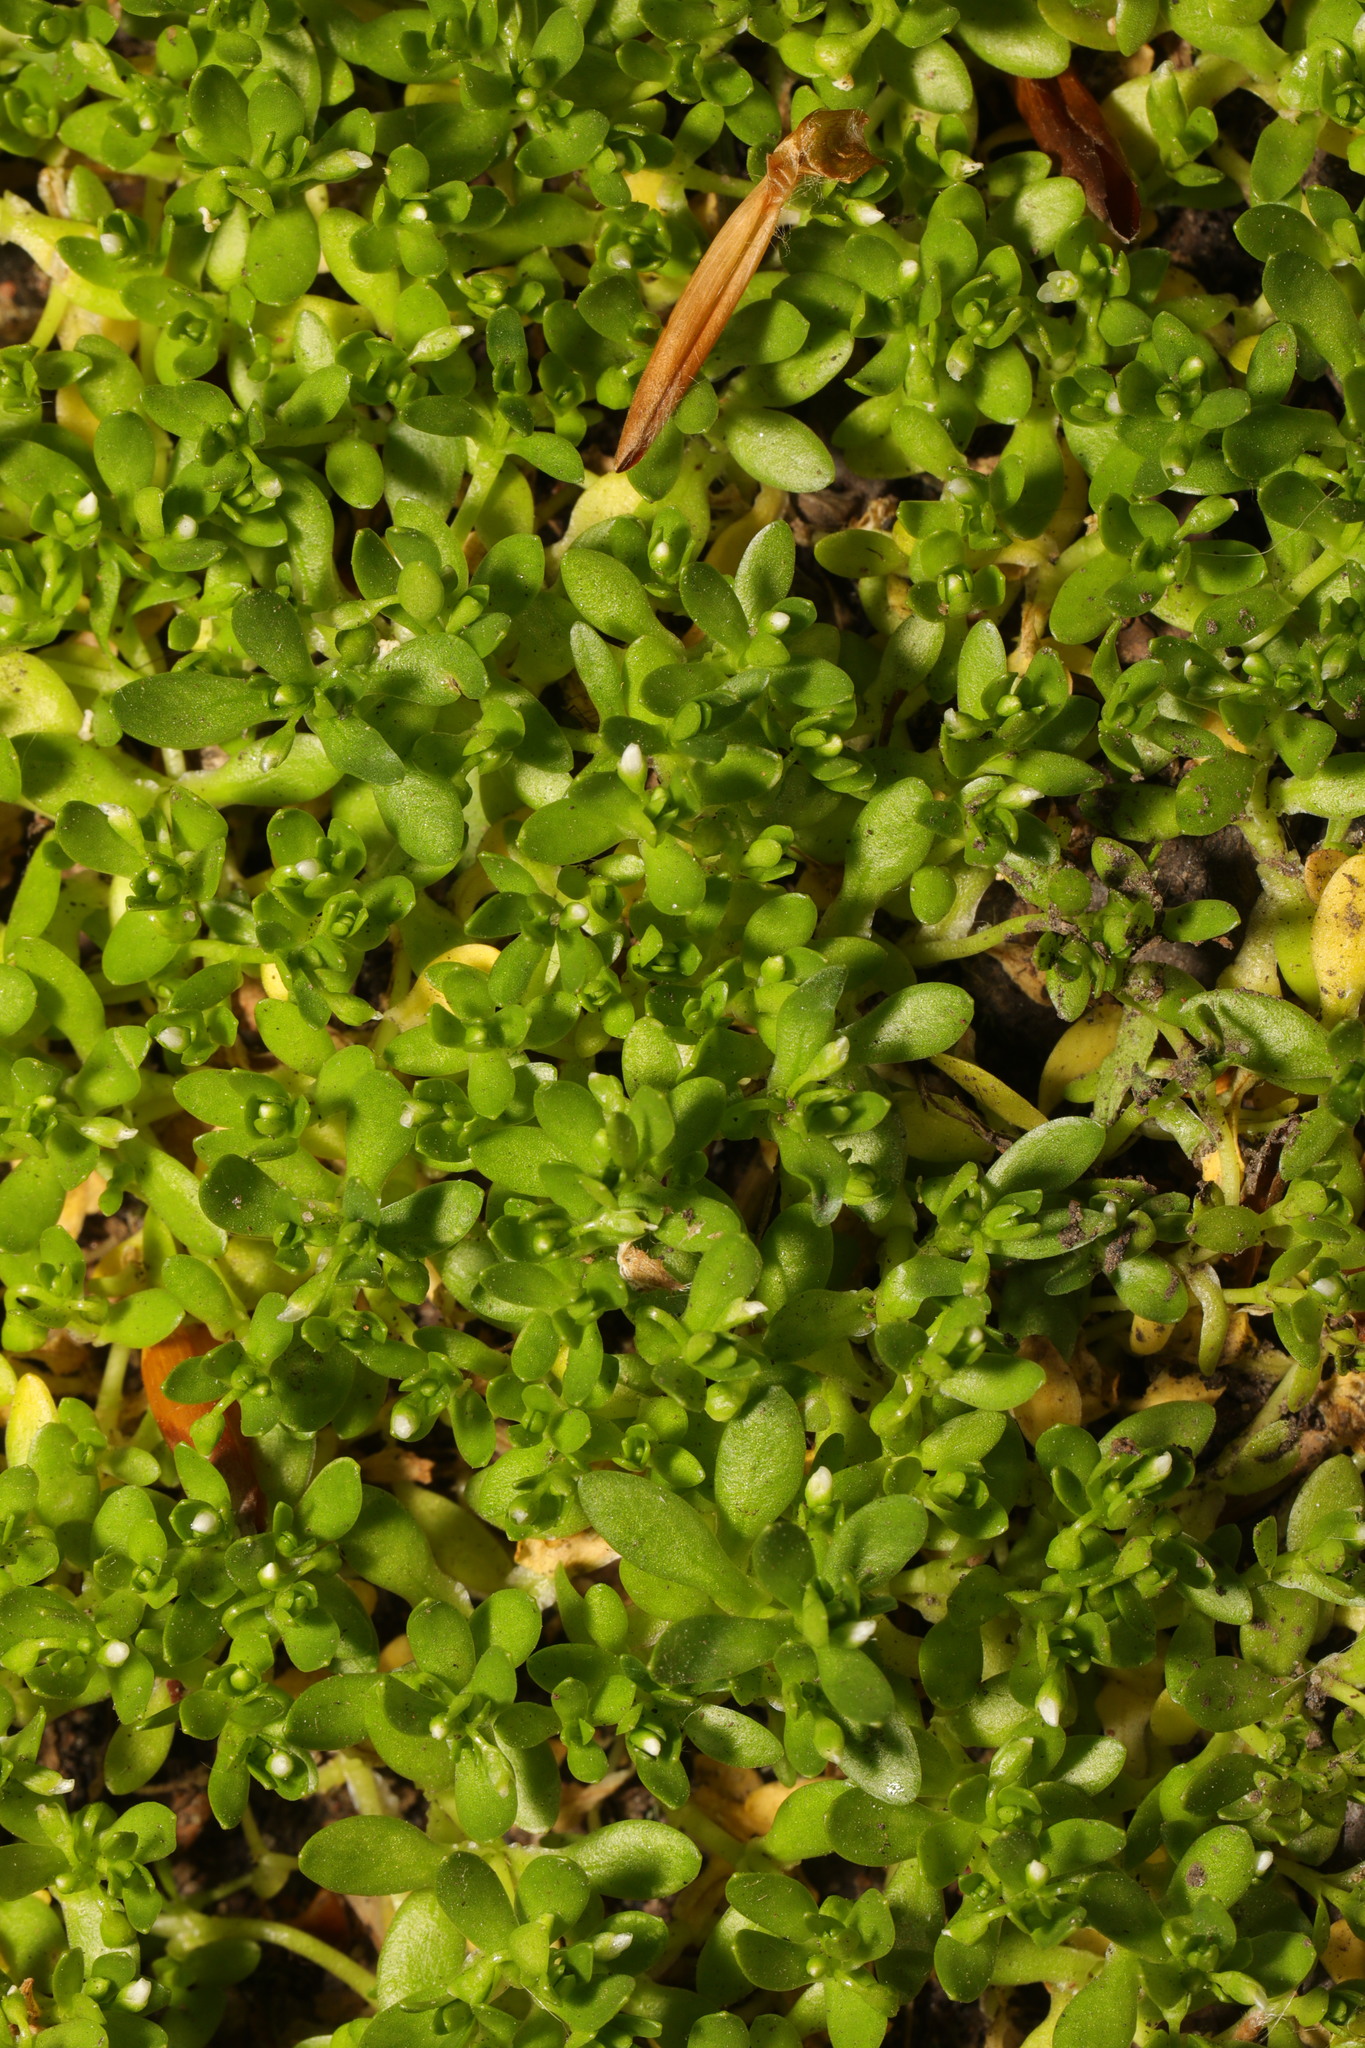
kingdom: Plantae
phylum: Tracheophyta
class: Magnoliopsida
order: Caryophyllales
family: Montiaceae
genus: Montia
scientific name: Montia fontana
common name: Blinks
